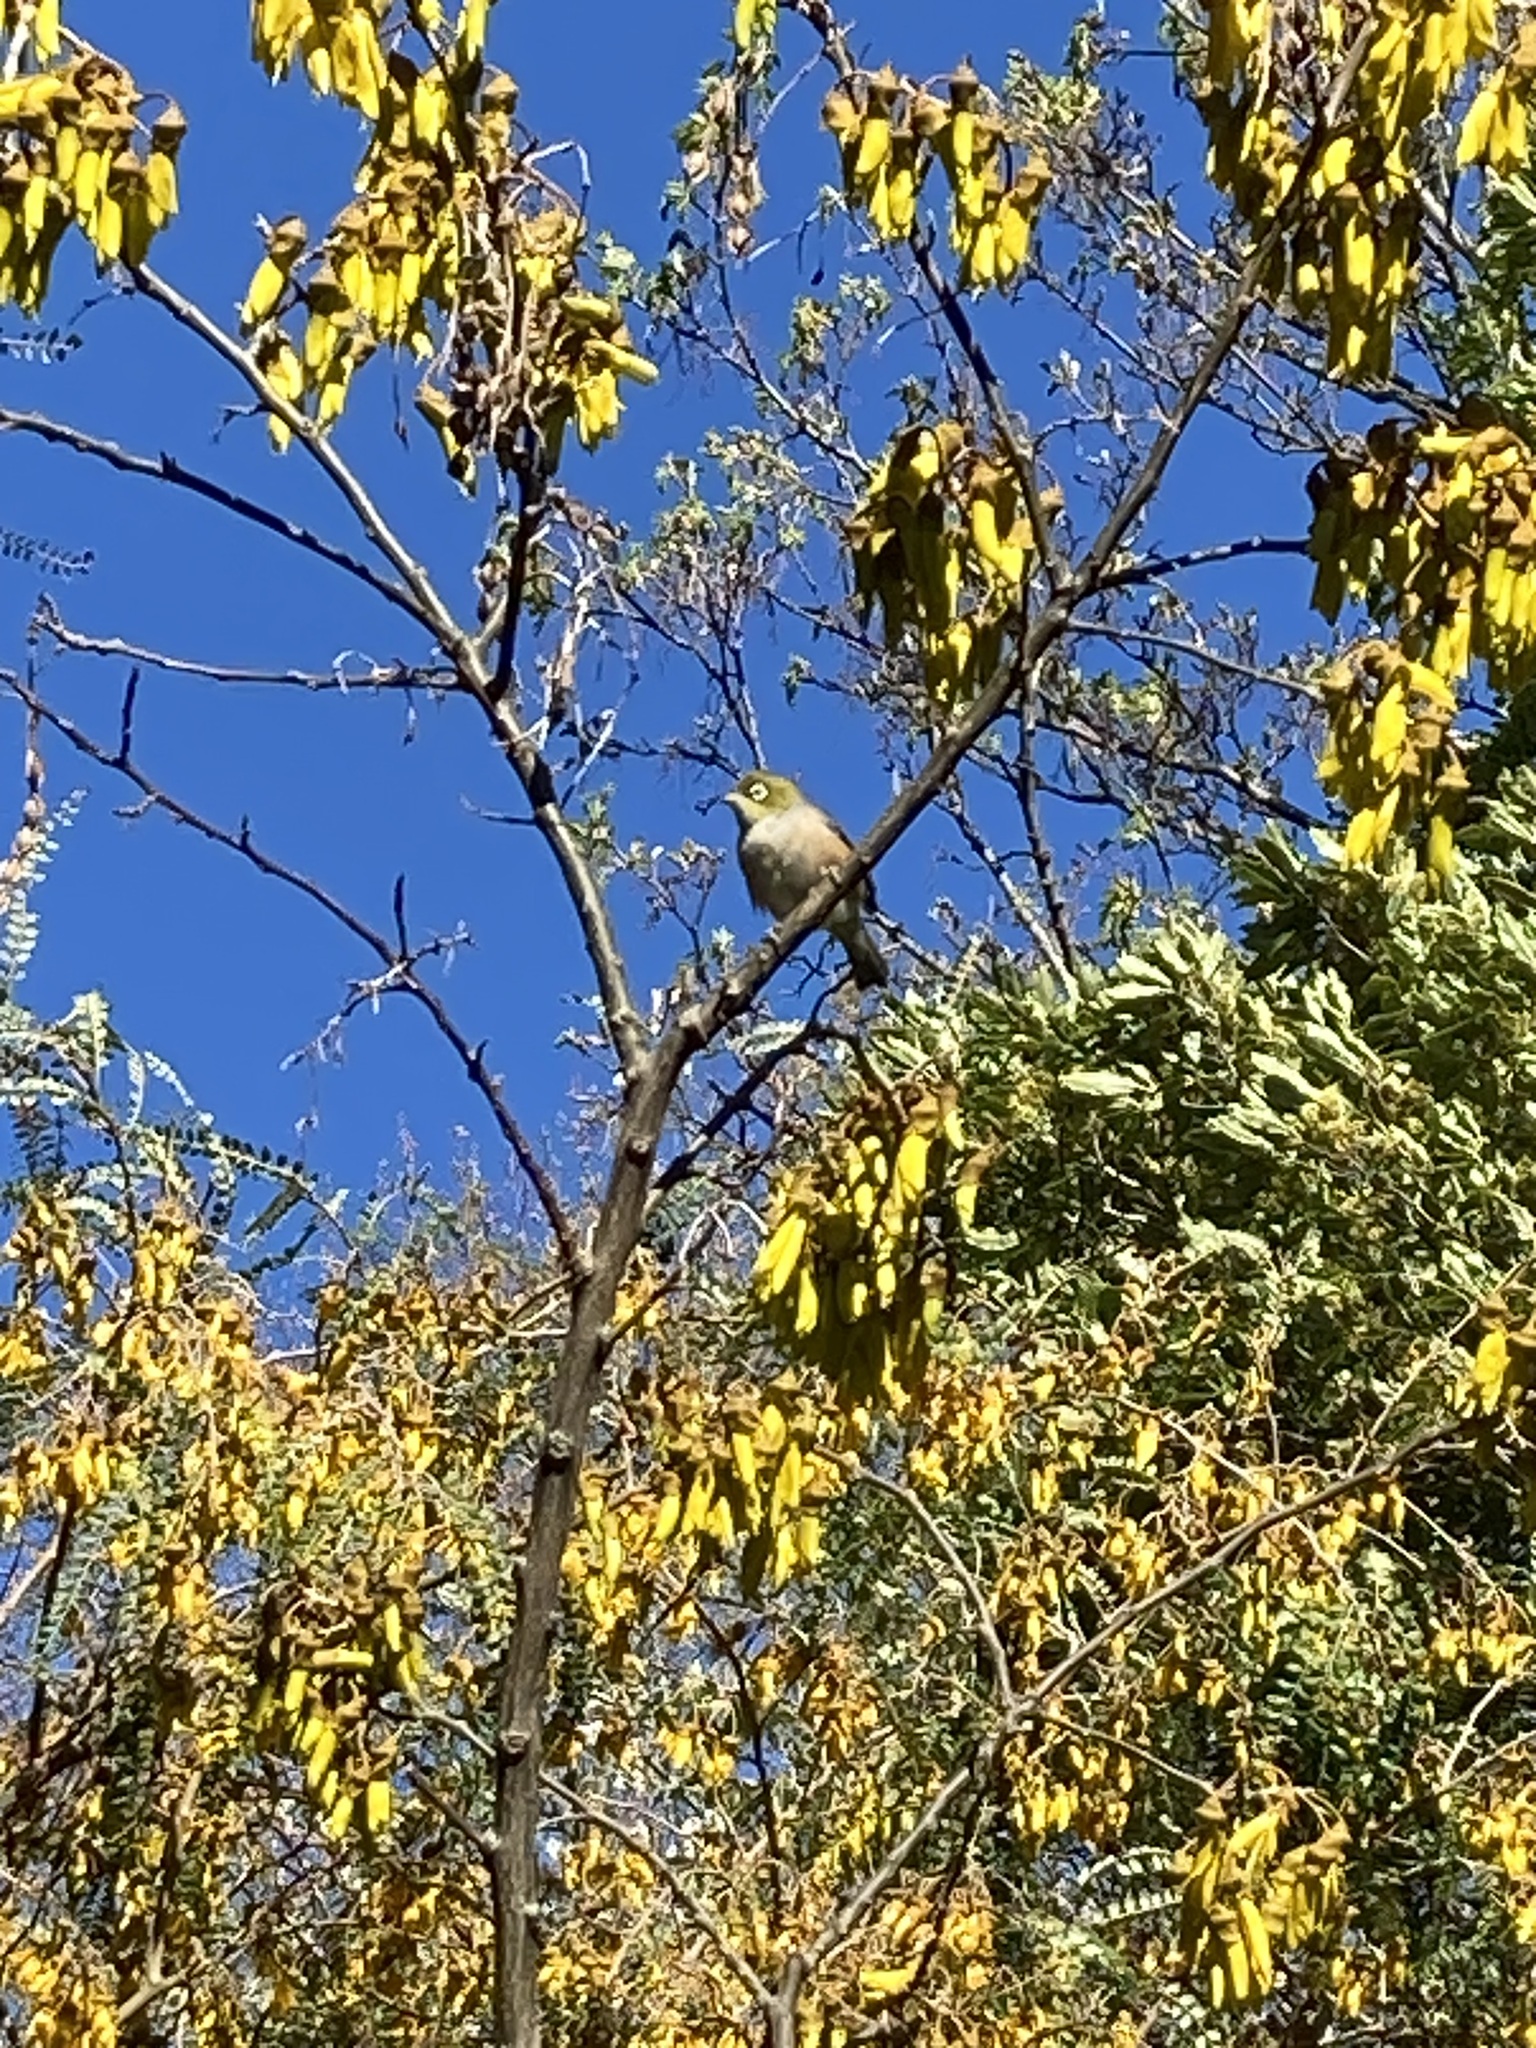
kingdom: Animalia
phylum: Chordata
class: Aves
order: Passeriformes
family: Zosteropidae
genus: Zosterops
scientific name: Zosterops lateralis
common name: Silvereye
